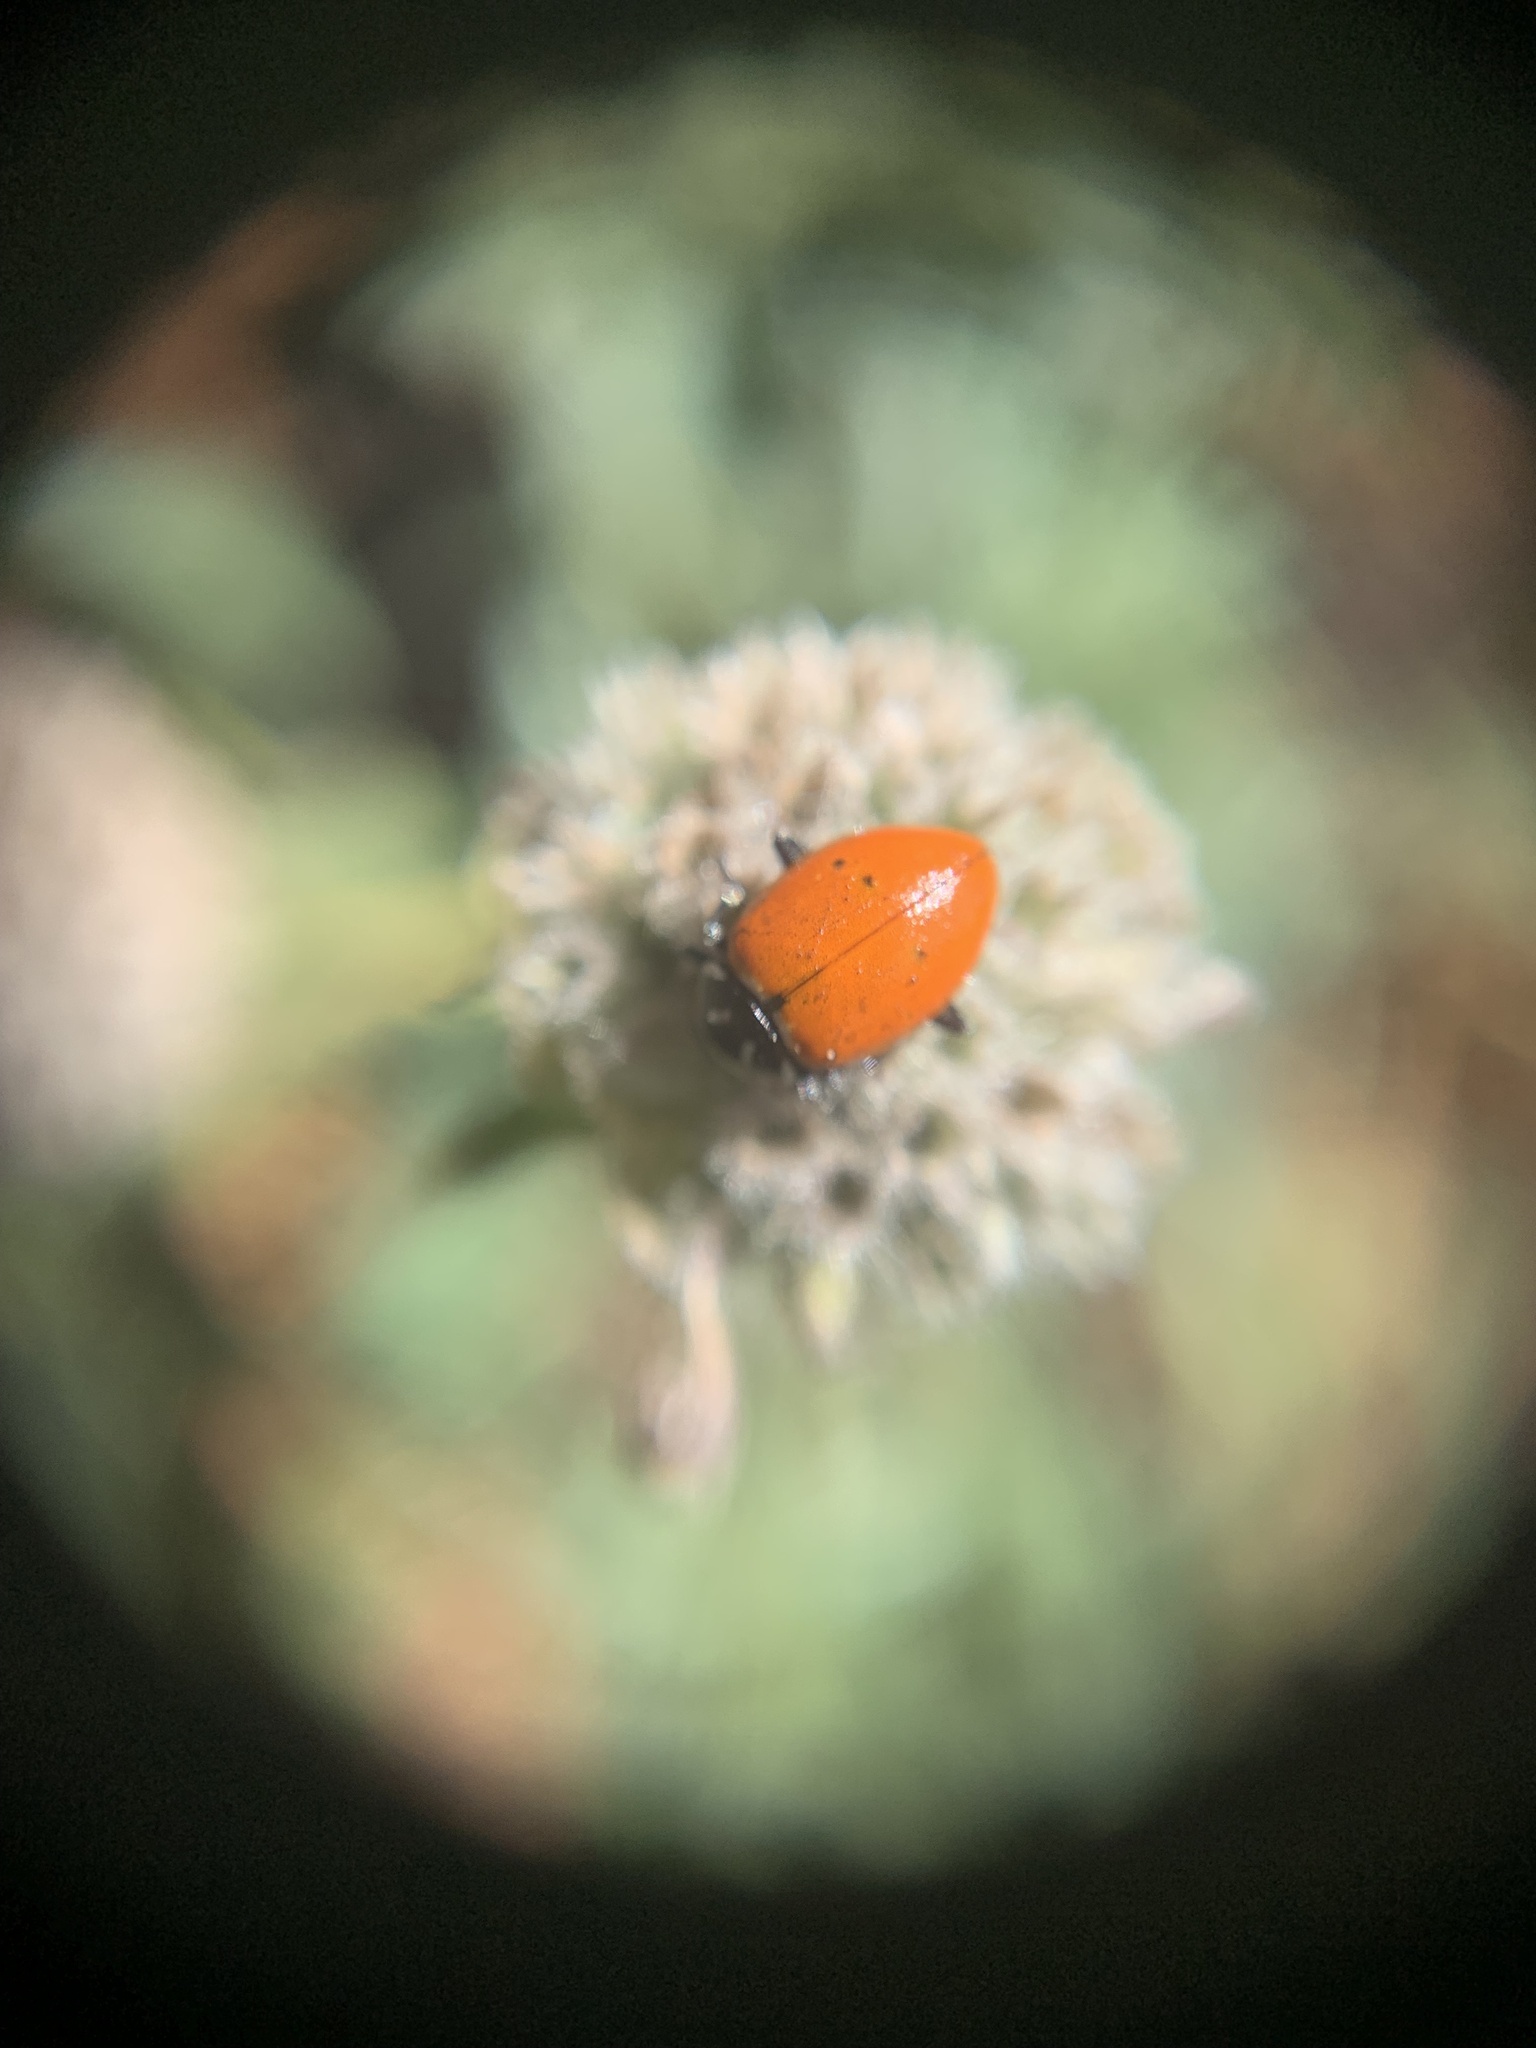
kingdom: Animalia
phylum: Arthropoda
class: Insecta
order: Coleoptera
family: Coccinellidae
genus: Hippodamia
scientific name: Hippodamia convergens
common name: Convergent lady beetle
